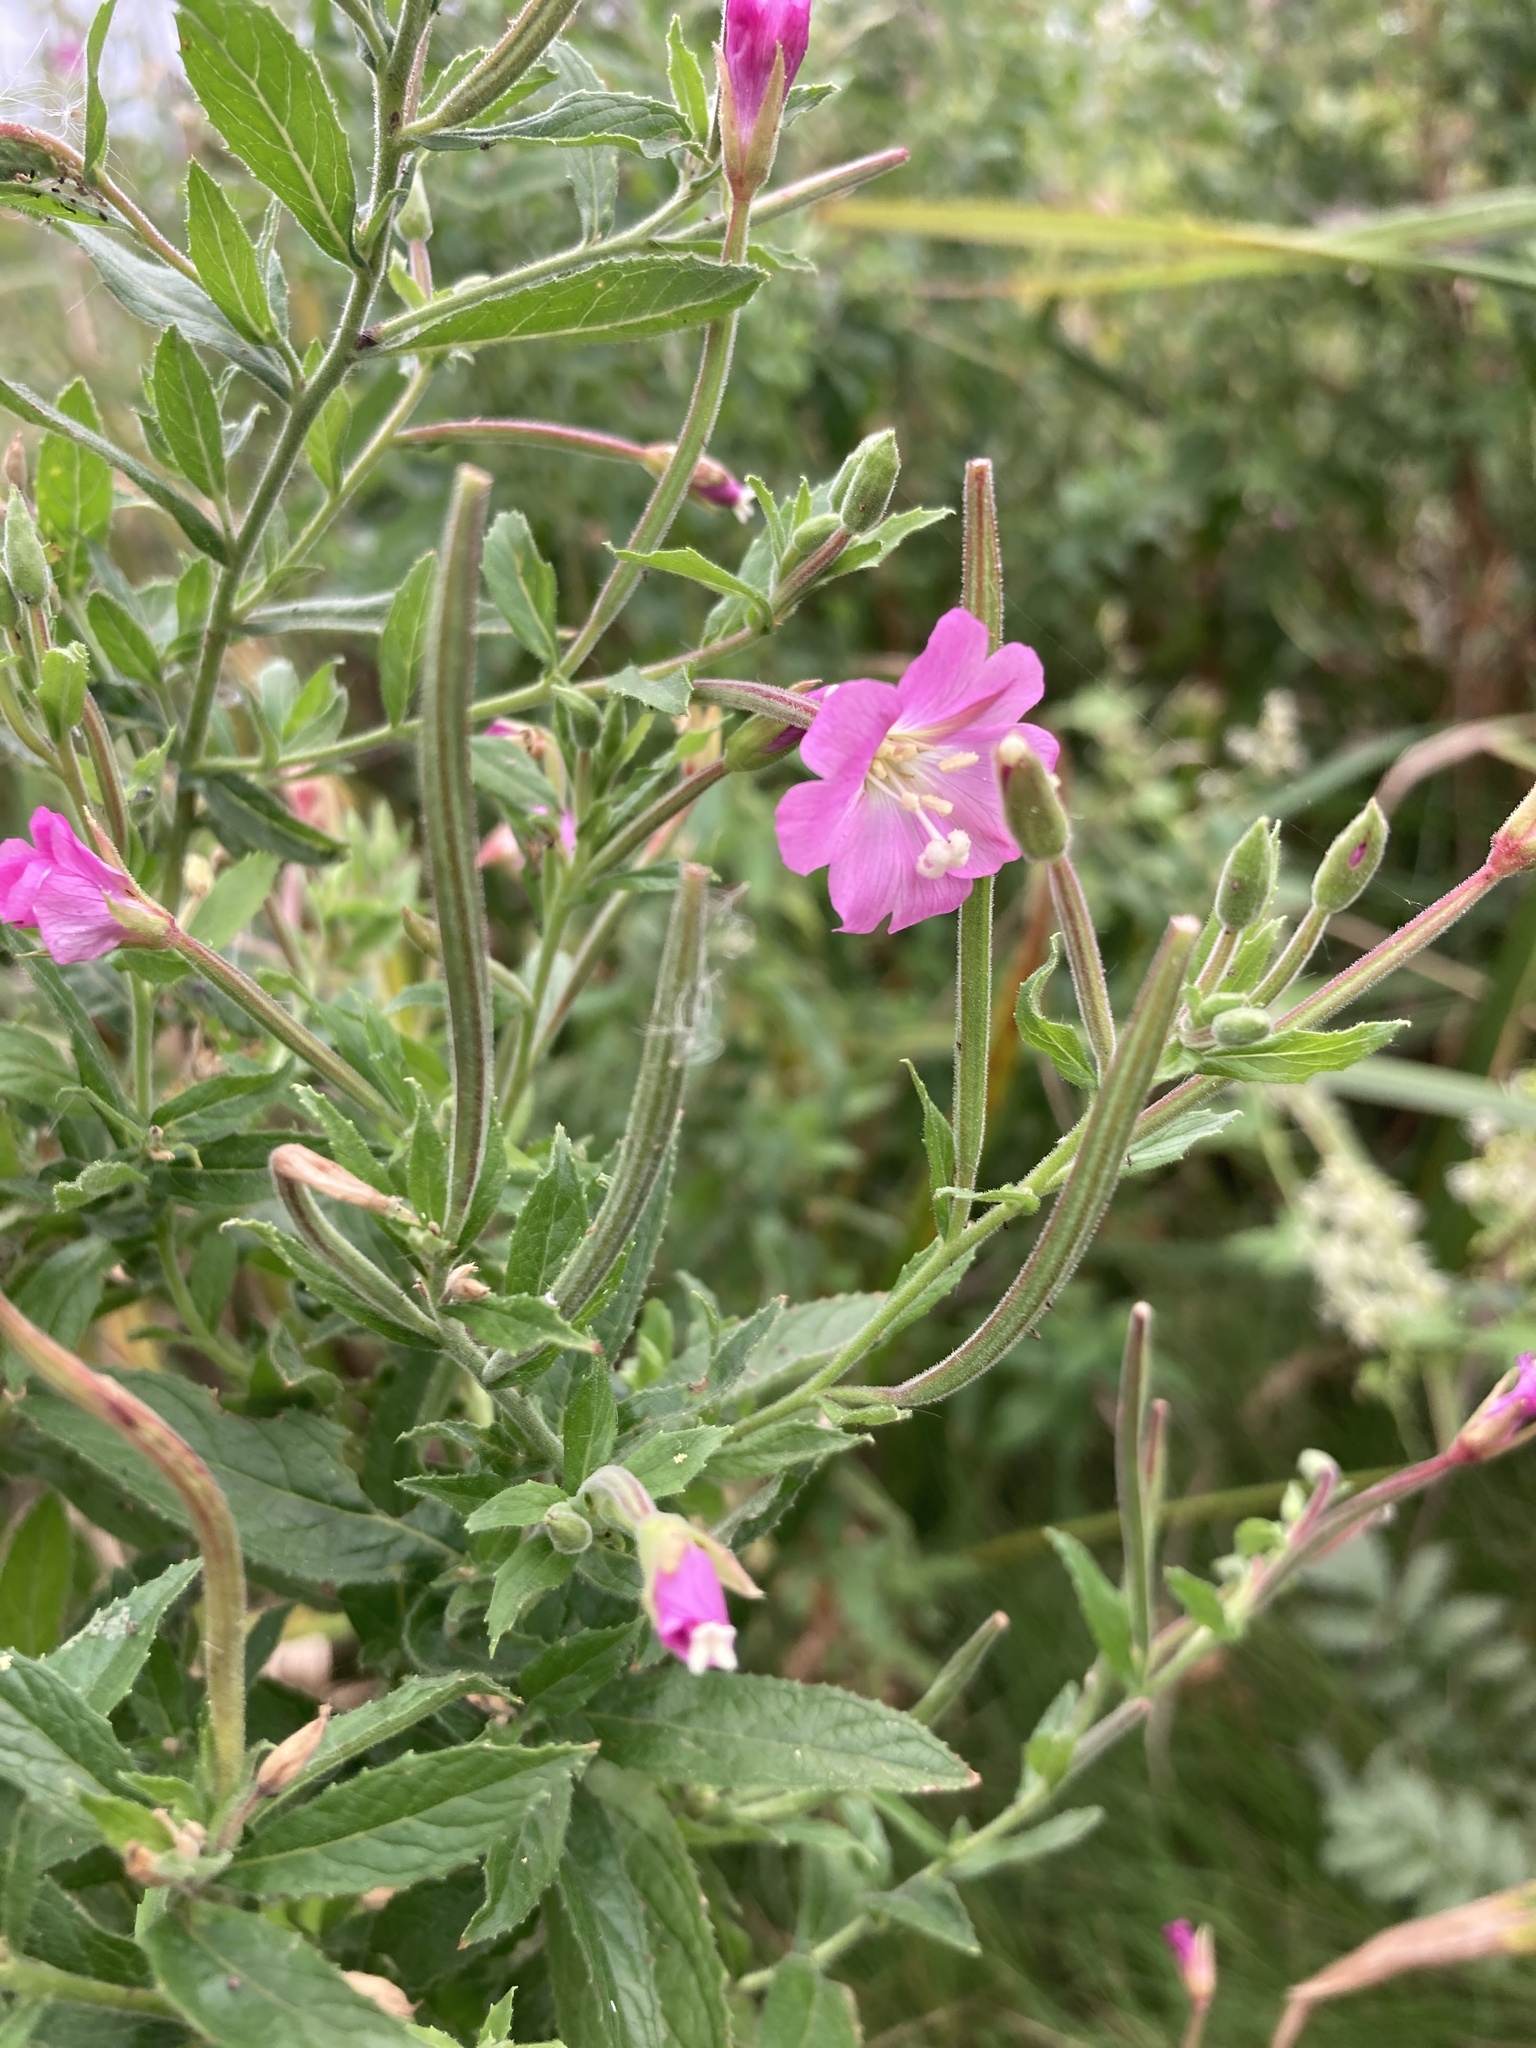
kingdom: Plantae
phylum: Tracheophyta
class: Magnoliopsida
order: Myrtales
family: Onagraceae
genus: Epilobium
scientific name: Epilobium hirsutum
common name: Great willowherb
